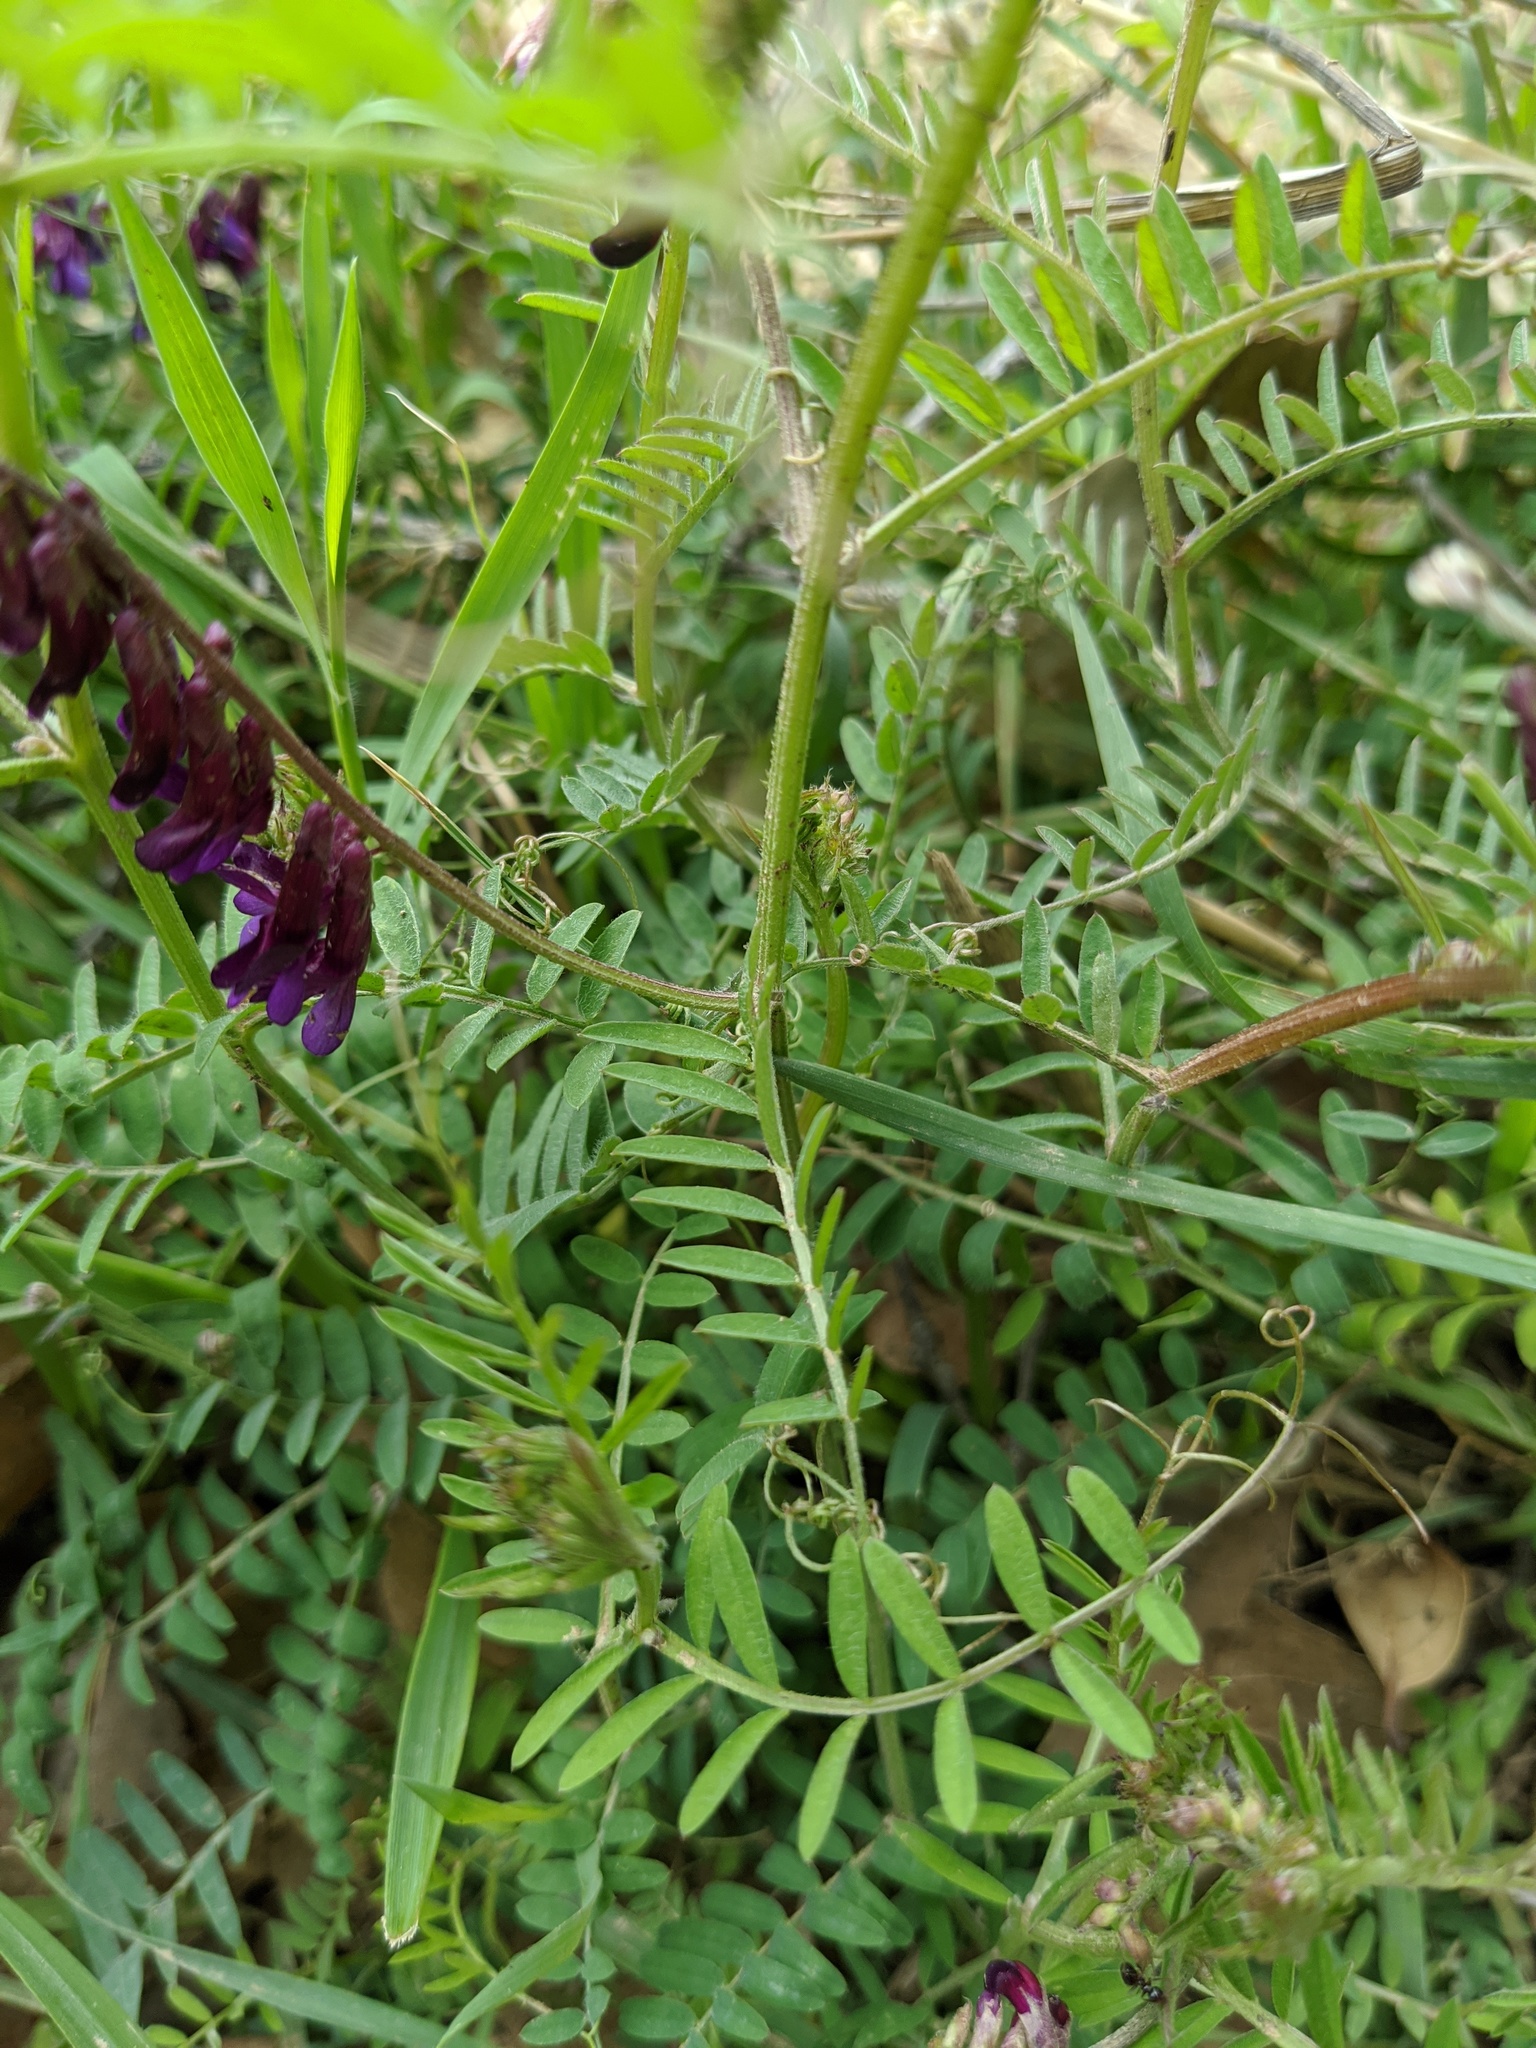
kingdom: Plantae
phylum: Tracheophyta
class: Magnoliopsida
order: Fabales
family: Fabaceae
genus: Vicia
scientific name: Vicia villosa
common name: Fodder vetch
